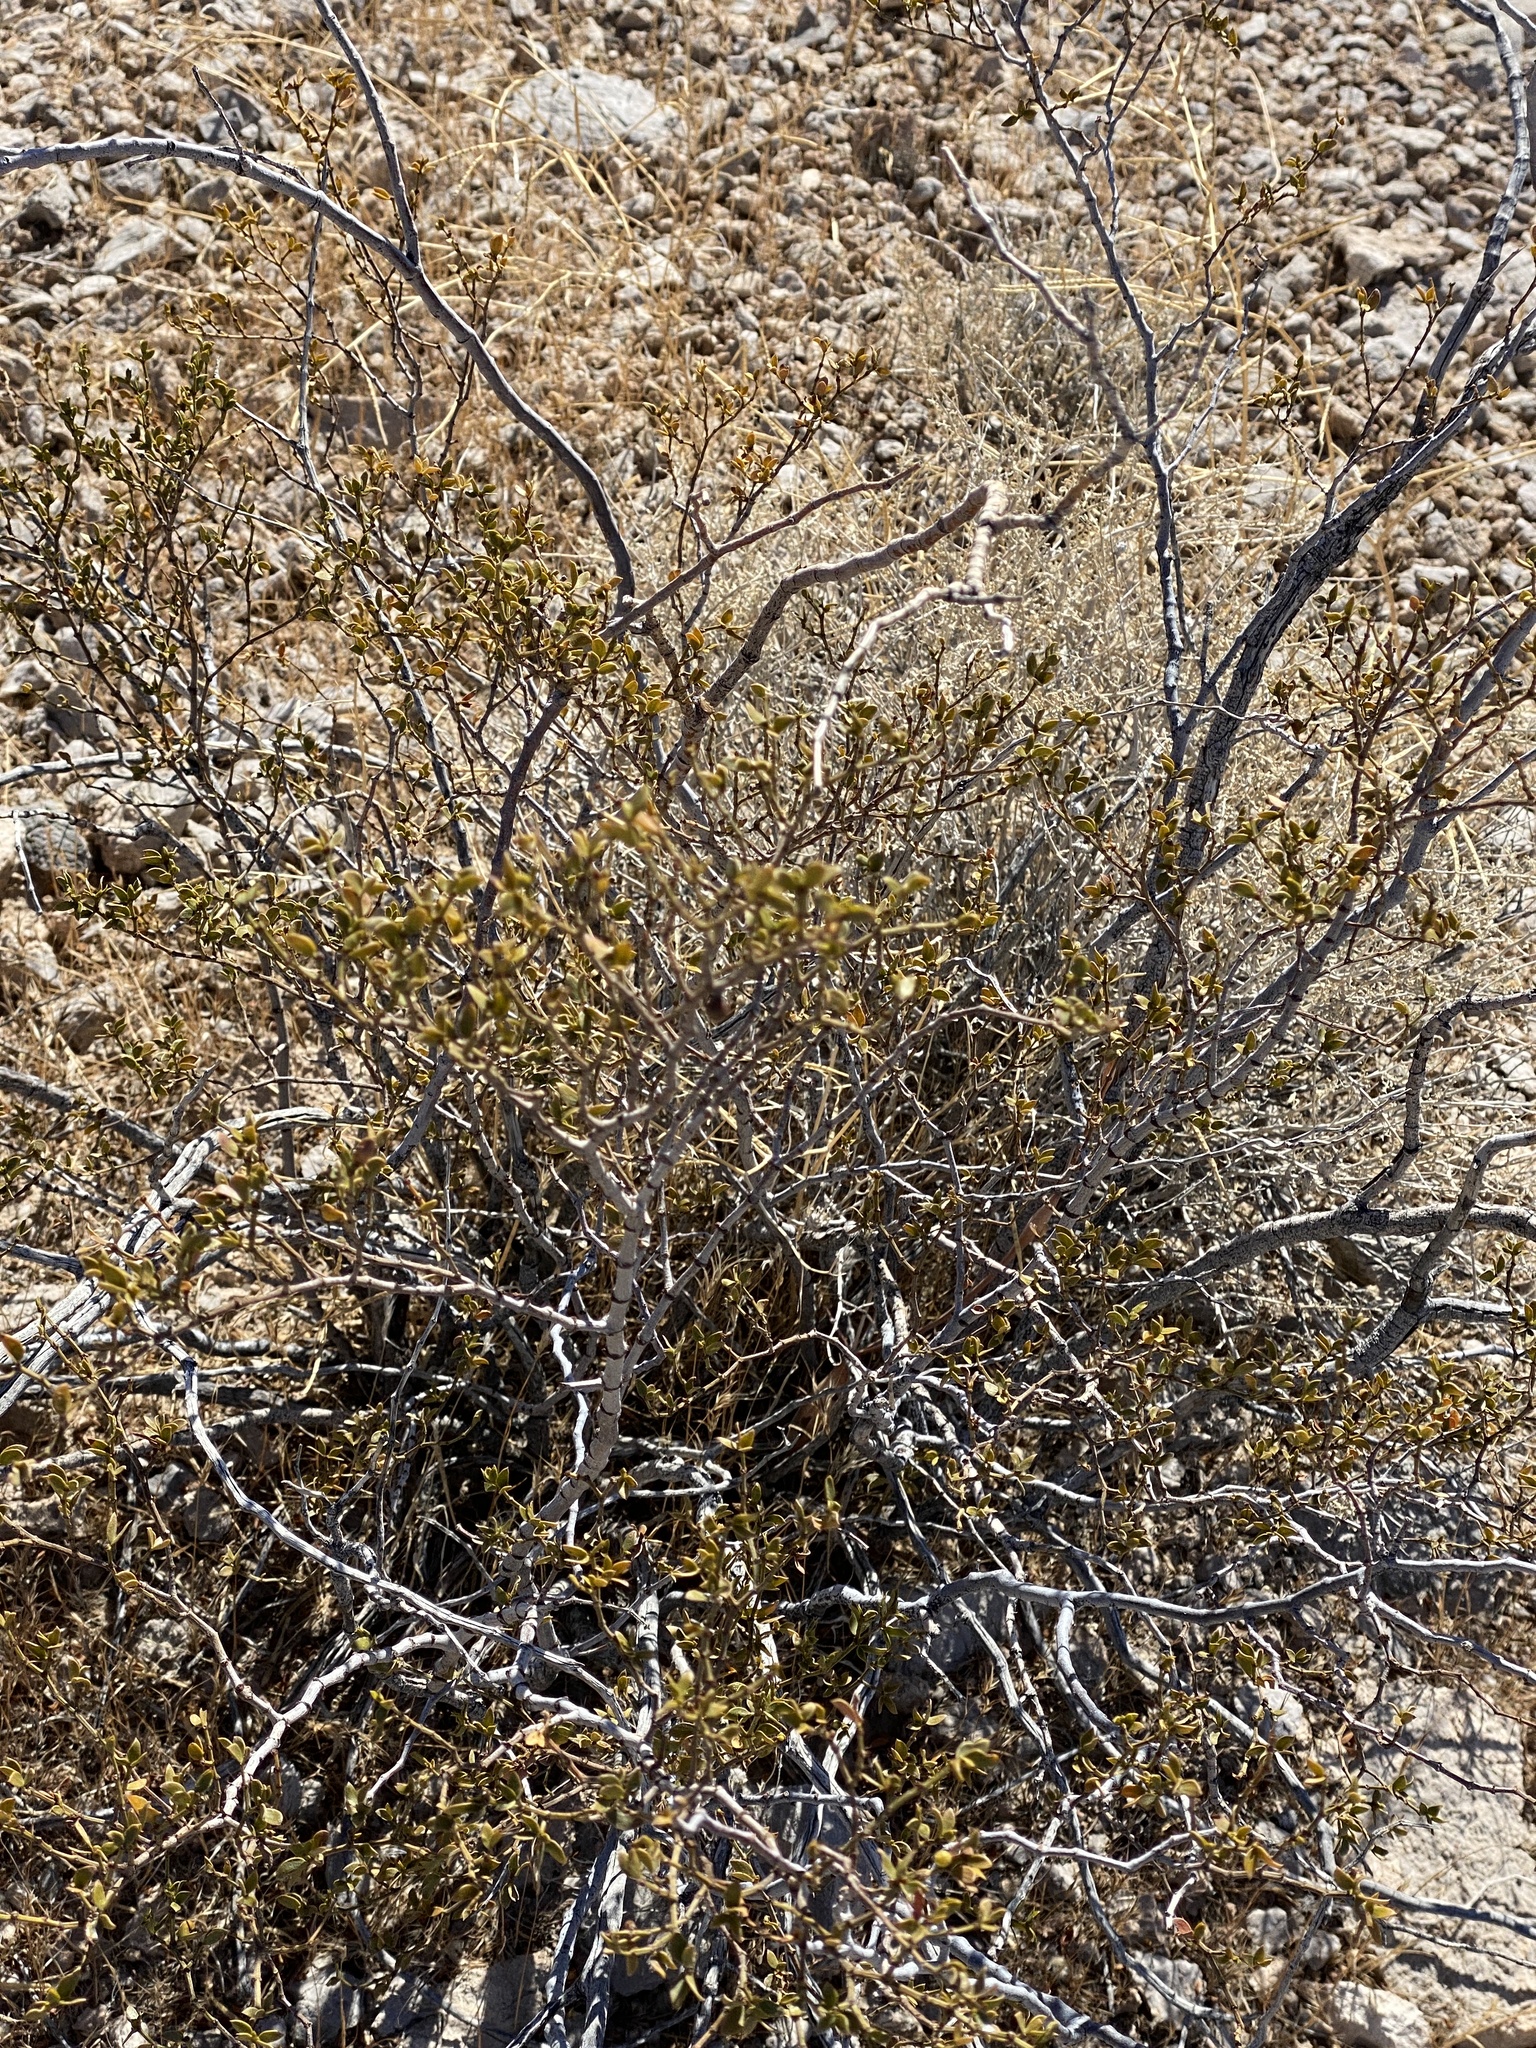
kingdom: Plantae
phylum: Tracheophyta
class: Magnoliopsida
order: Zygophyllales
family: Zygophyllaceae
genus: Larrea
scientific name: Larrea tridentata
